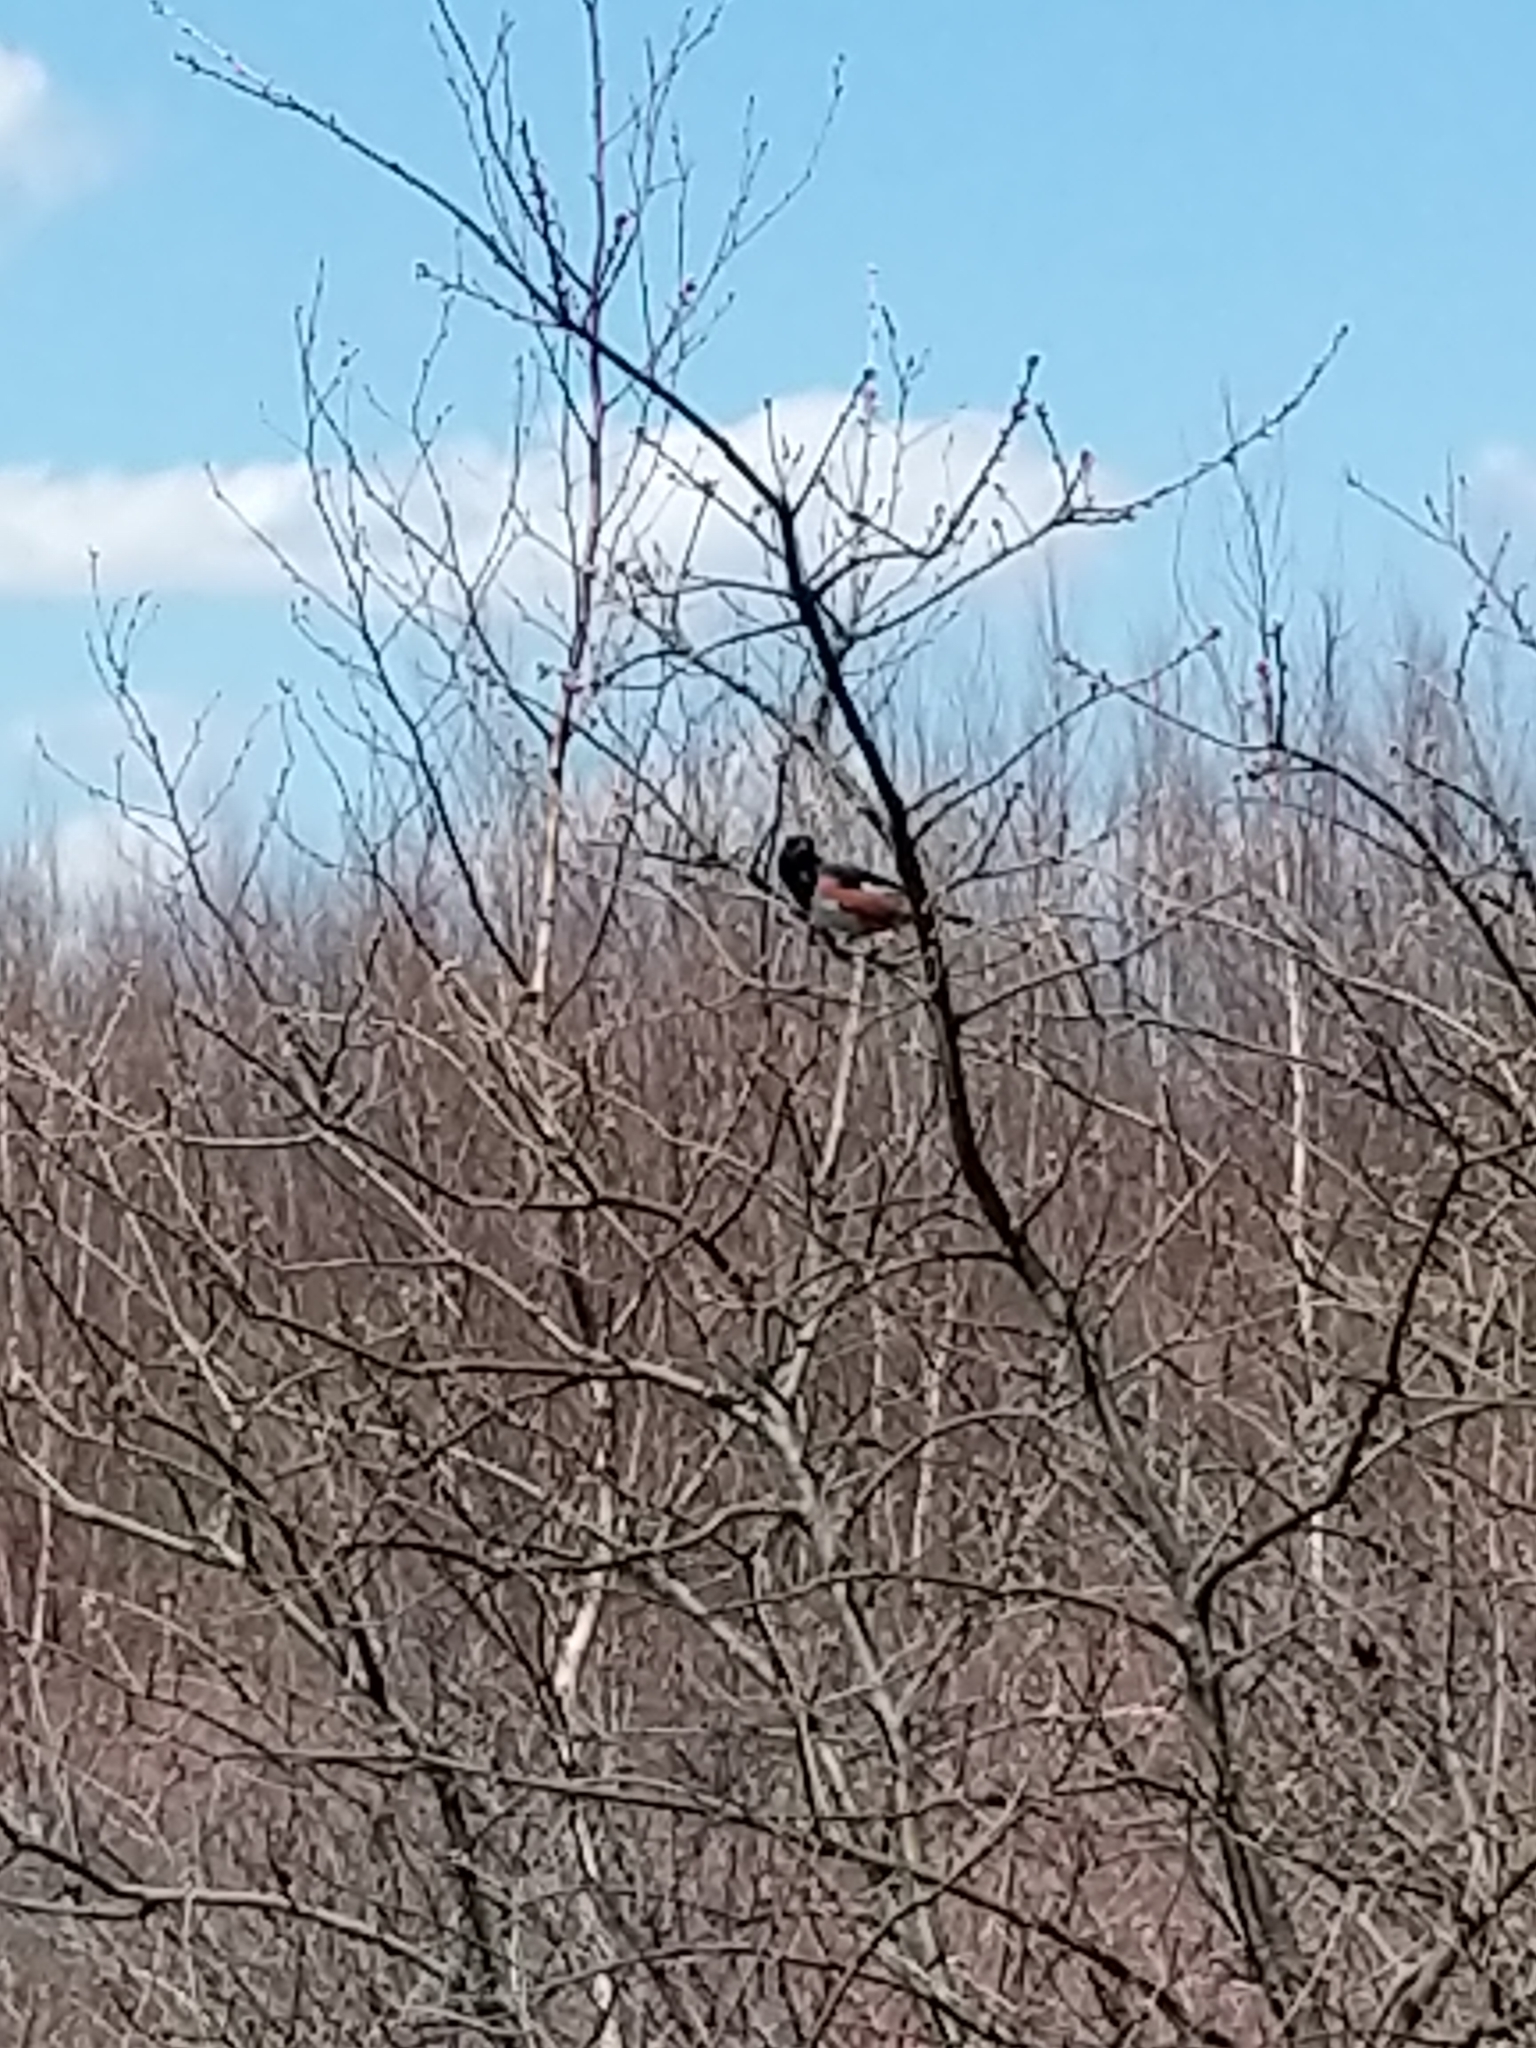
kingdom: Animalia
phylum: Chordata
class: Aves
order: Passeriformes
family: Passerellidae
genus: Pipilo
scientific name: Pipilo erythrophthalmus
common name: Eastern towhee
